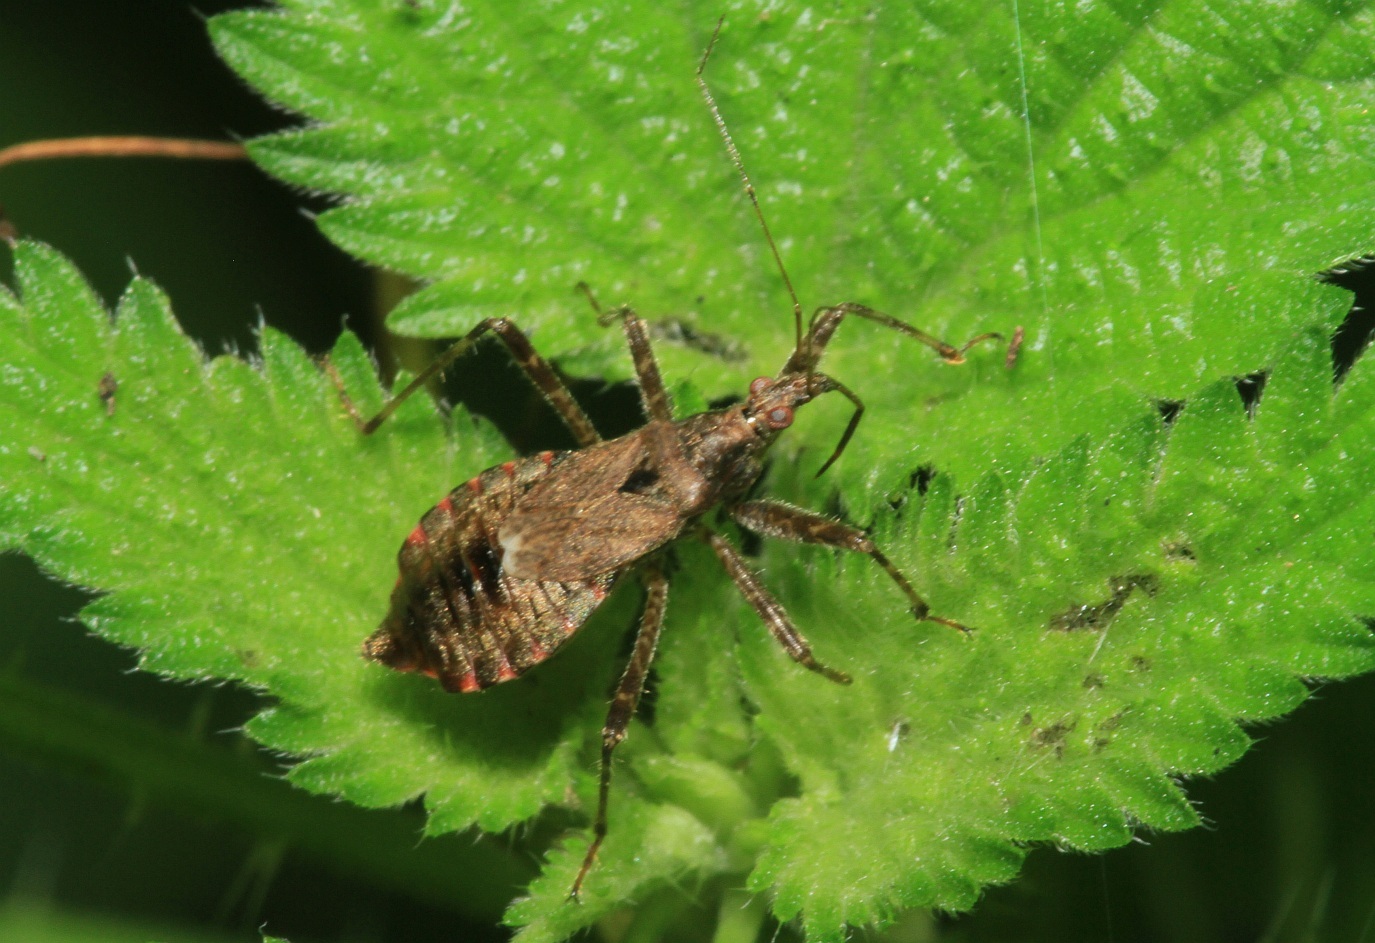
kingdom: Animalia
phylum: Arthropoda
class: Insecta
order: Hemiptera
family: Nabidae
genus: Himacerus
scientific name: Himacerus apterus
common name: Tree damsel bug
